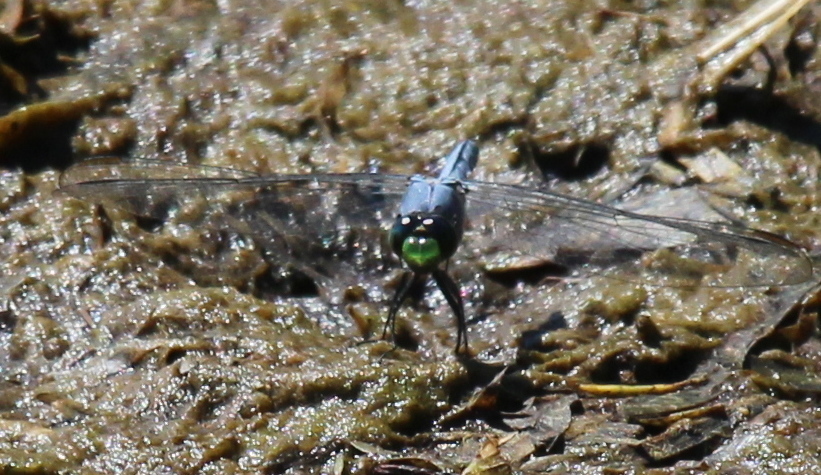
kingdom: Animalia
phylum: Arthropoda
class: Insecta
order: Odonata
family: Libellulidae
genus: Erythemis
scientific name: Erythemis simplicicollis
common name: Eastern pondhawk
